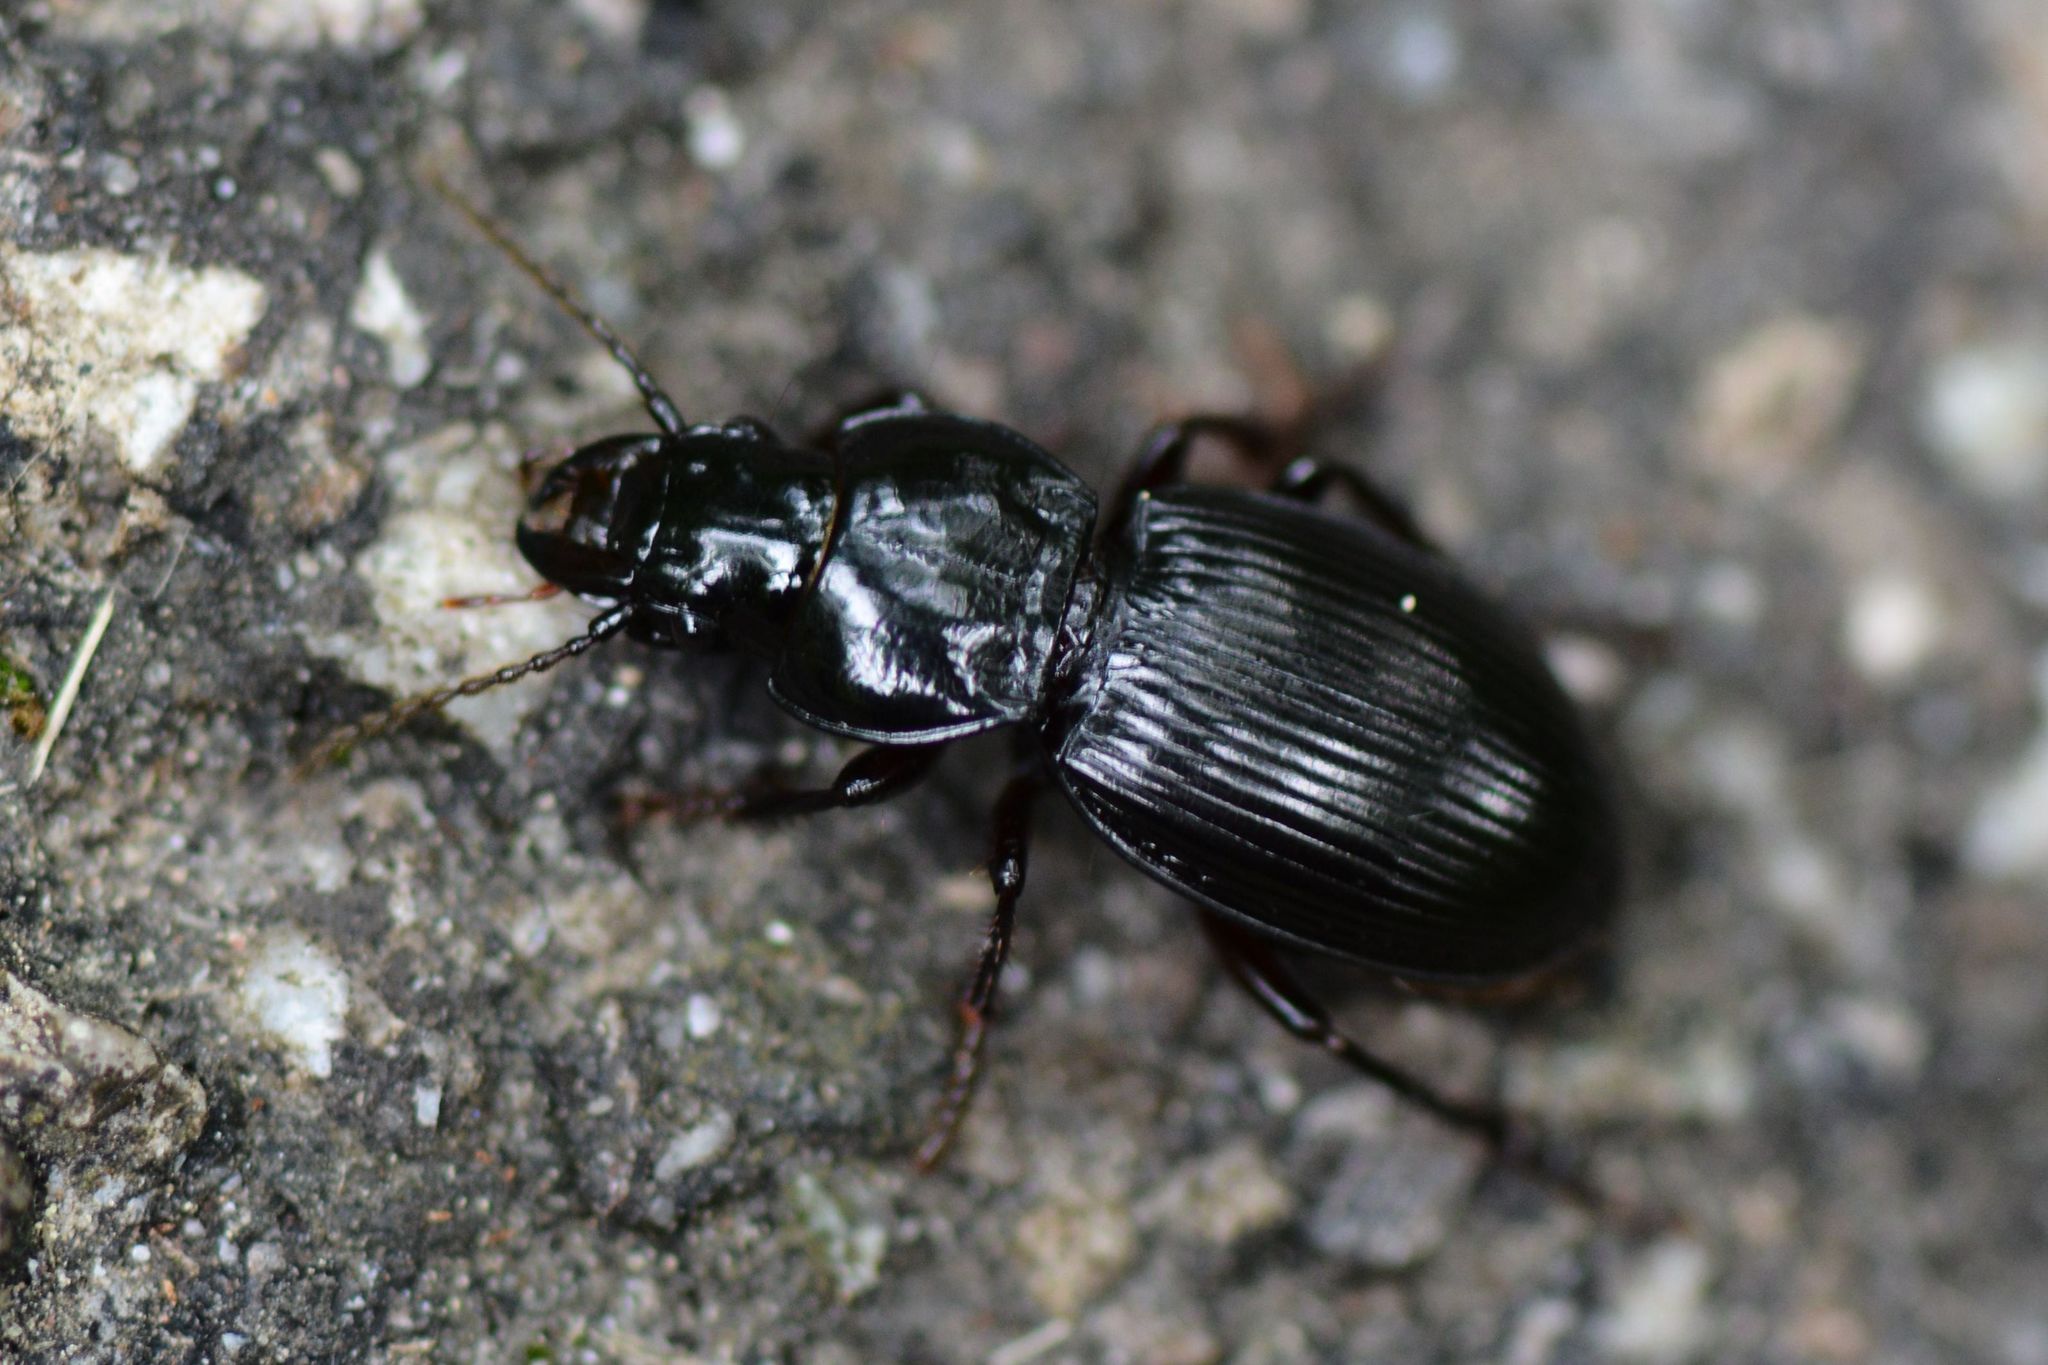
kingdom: Animalia
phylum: Arthropoda
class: Insecta
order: Coleoptera
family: Carabidae
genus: Molops
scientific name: Molops elatus
